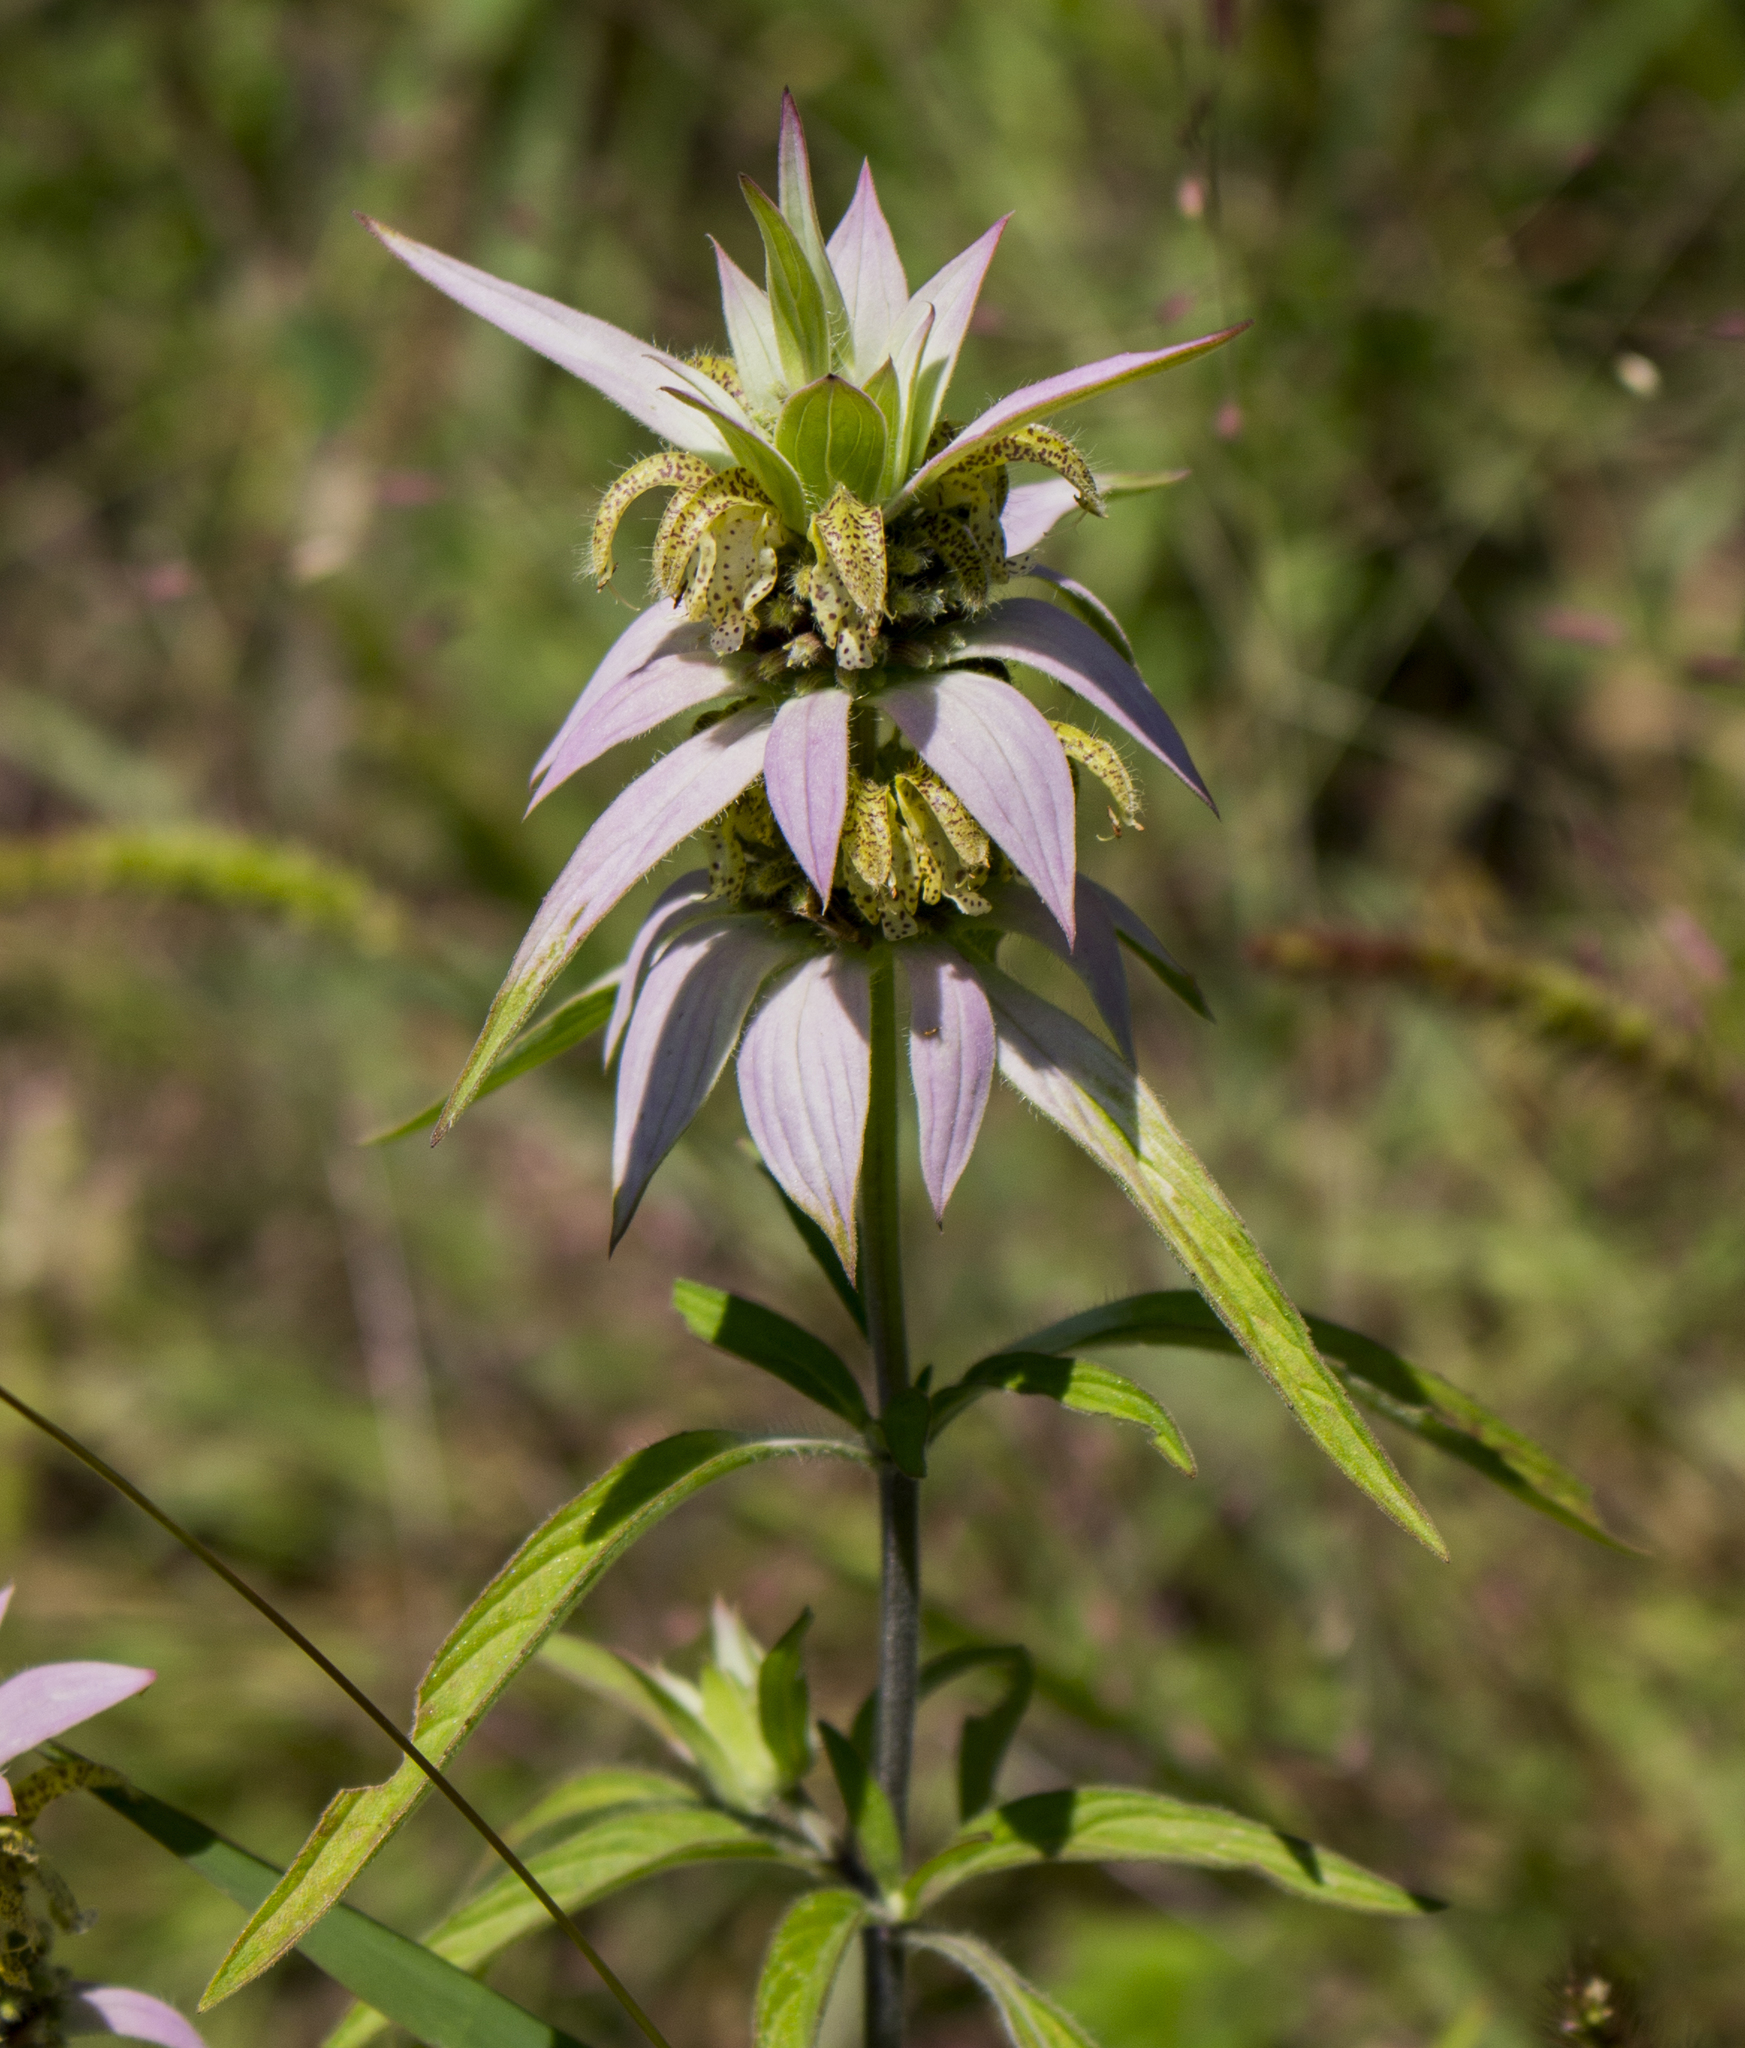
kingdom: Plantae
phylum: Tracheophyta
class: Magnoliopsida
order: Lamiales
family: Lamiaceae
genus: Monarda
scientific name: Monarda punctata
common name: Dotted monarda
